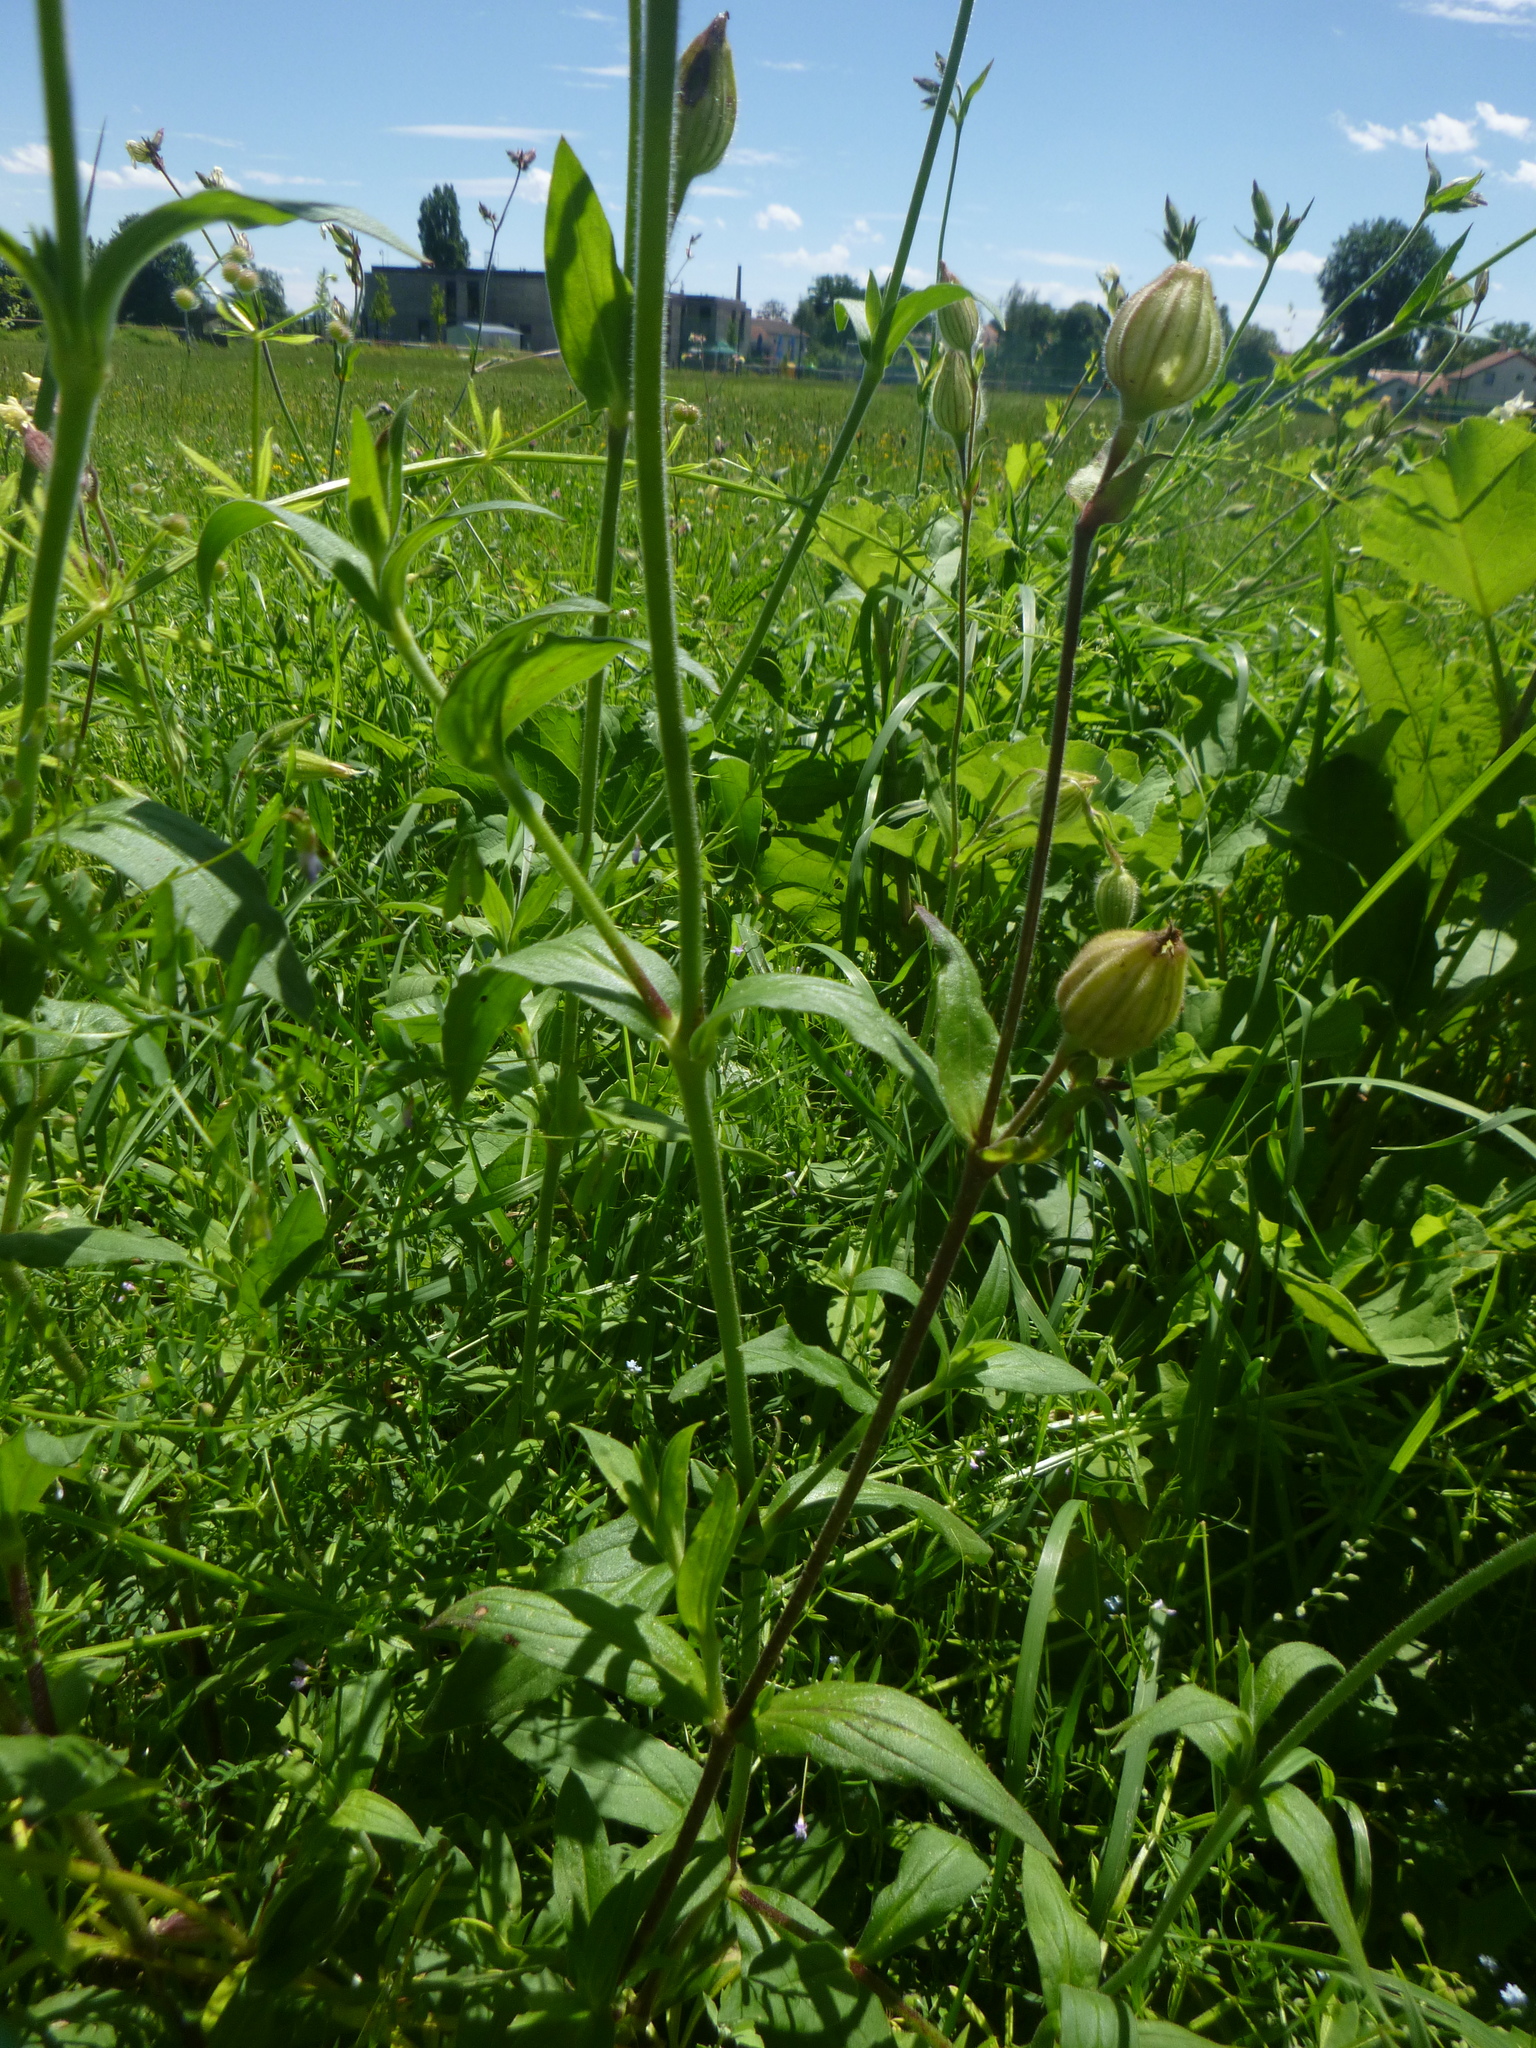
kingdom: Plantae
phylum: Tracheophyta
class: Magnoliopsida
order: Caryophyllales
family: Caryophyllaceae
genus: Silene
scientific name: Silene latifolia
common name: White campion
